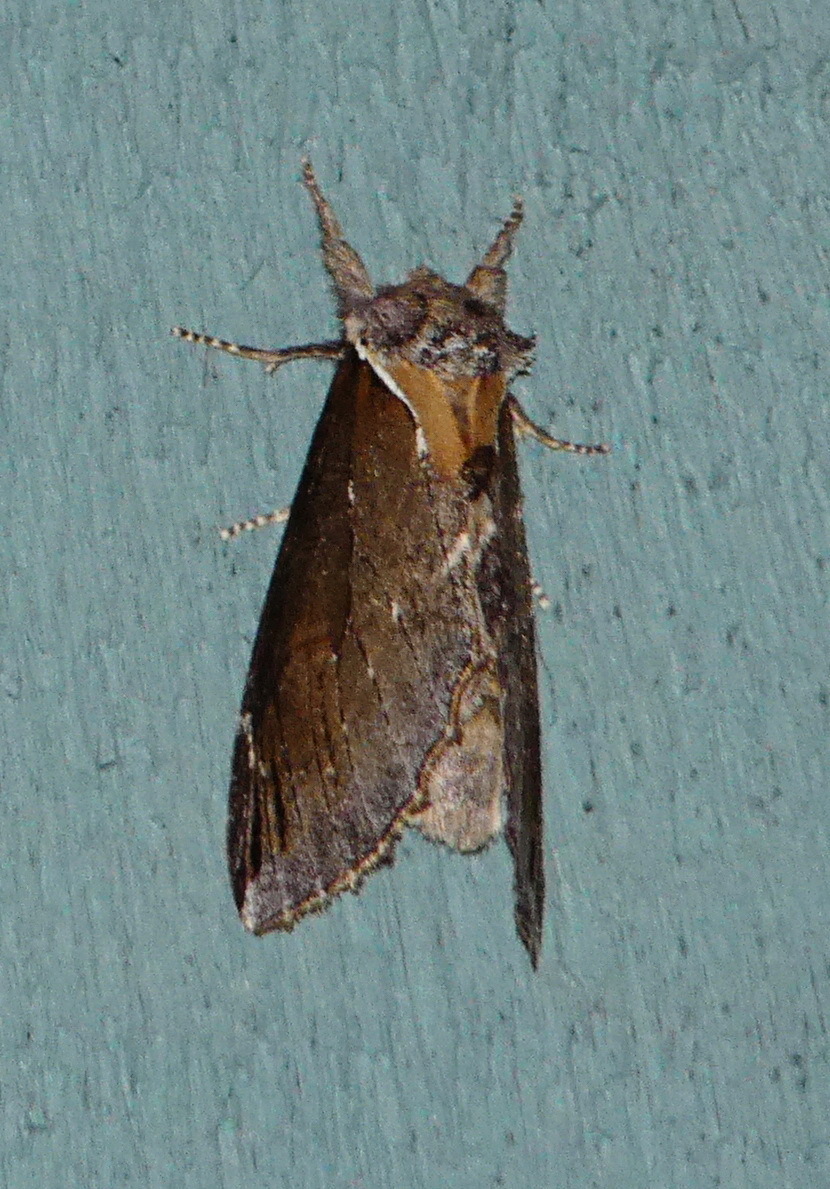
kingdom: Animalia
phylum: Arthropoda
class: Insecta
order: Lepidoptera
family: Notodontidae
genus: Pheosidea
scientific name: Pheosidea elegans
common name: Elegant prominent
